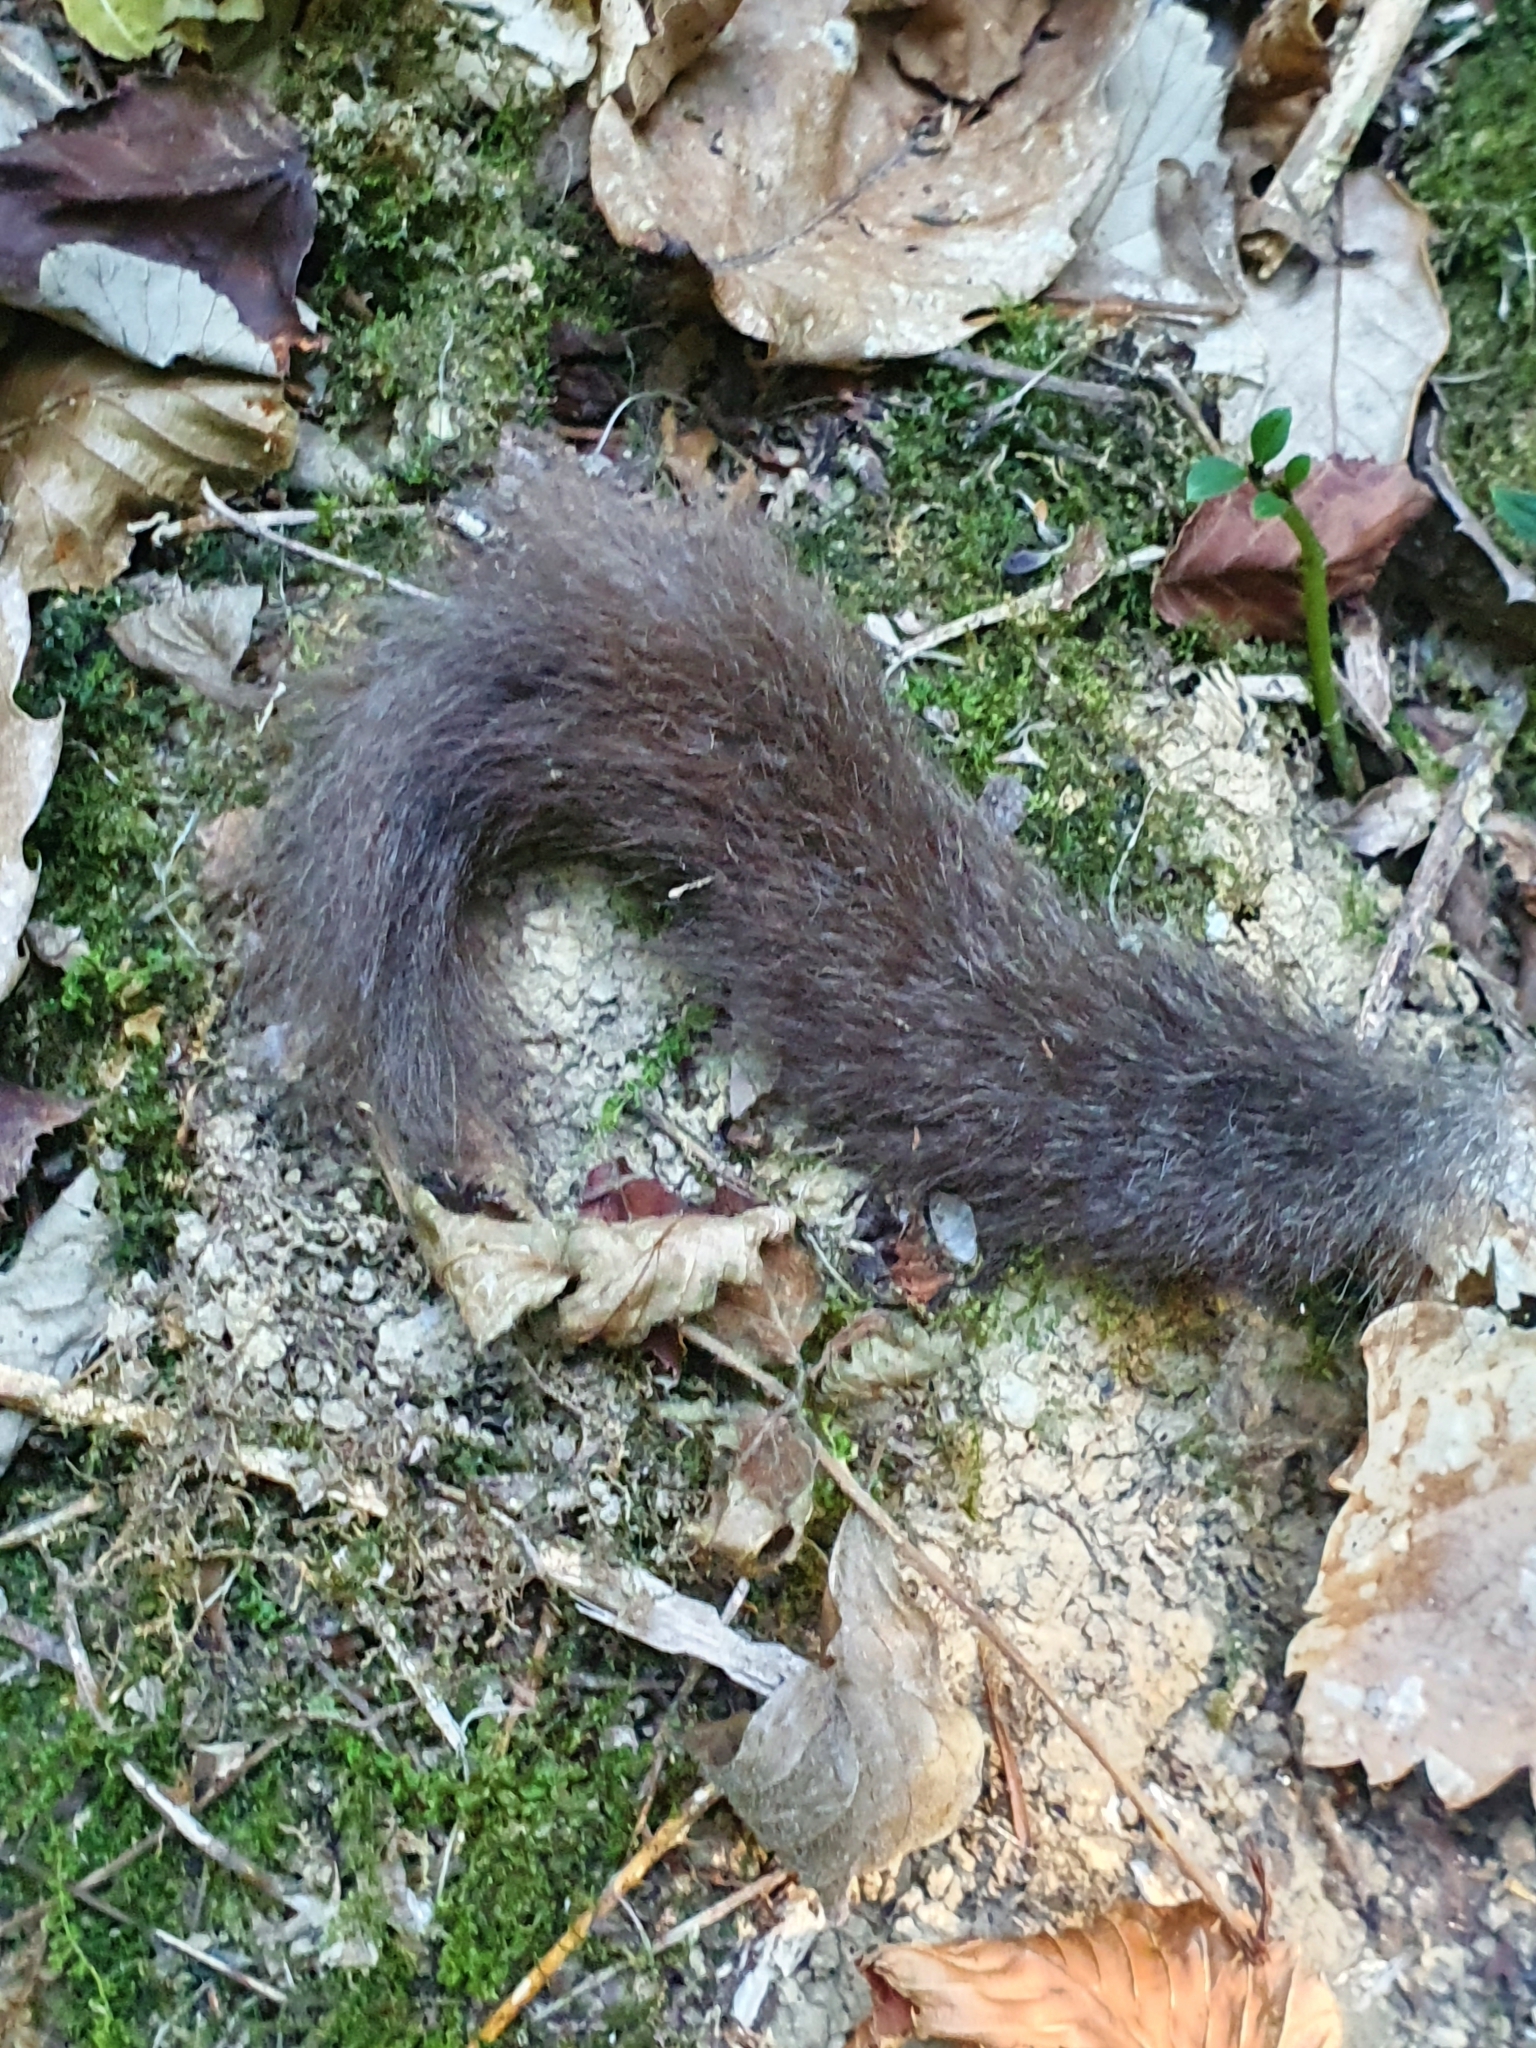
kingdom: Animalia
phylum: Chordata
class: Mammalia
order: Rodentia
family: Gliridae
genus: Glis
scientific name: Glis glis
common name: Fat dormouse
